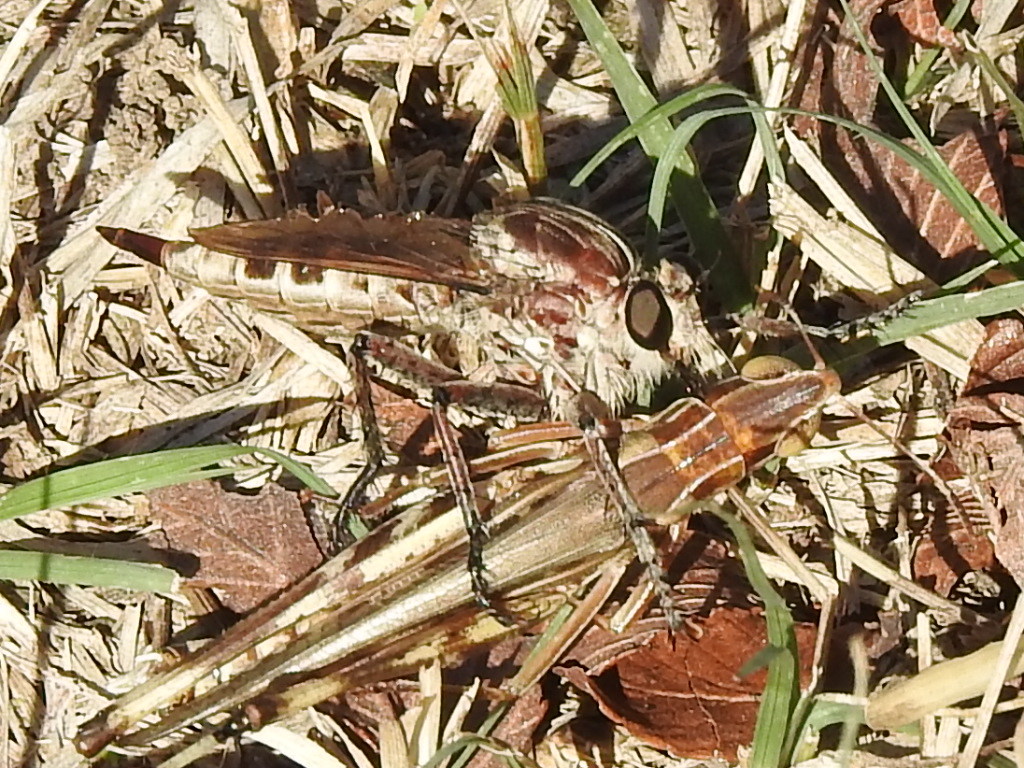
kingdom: Animalia
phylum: Arthropoda
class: Insecta
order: Diptera
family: Asilidae
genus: Triorla
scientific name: Triorla interrupta
